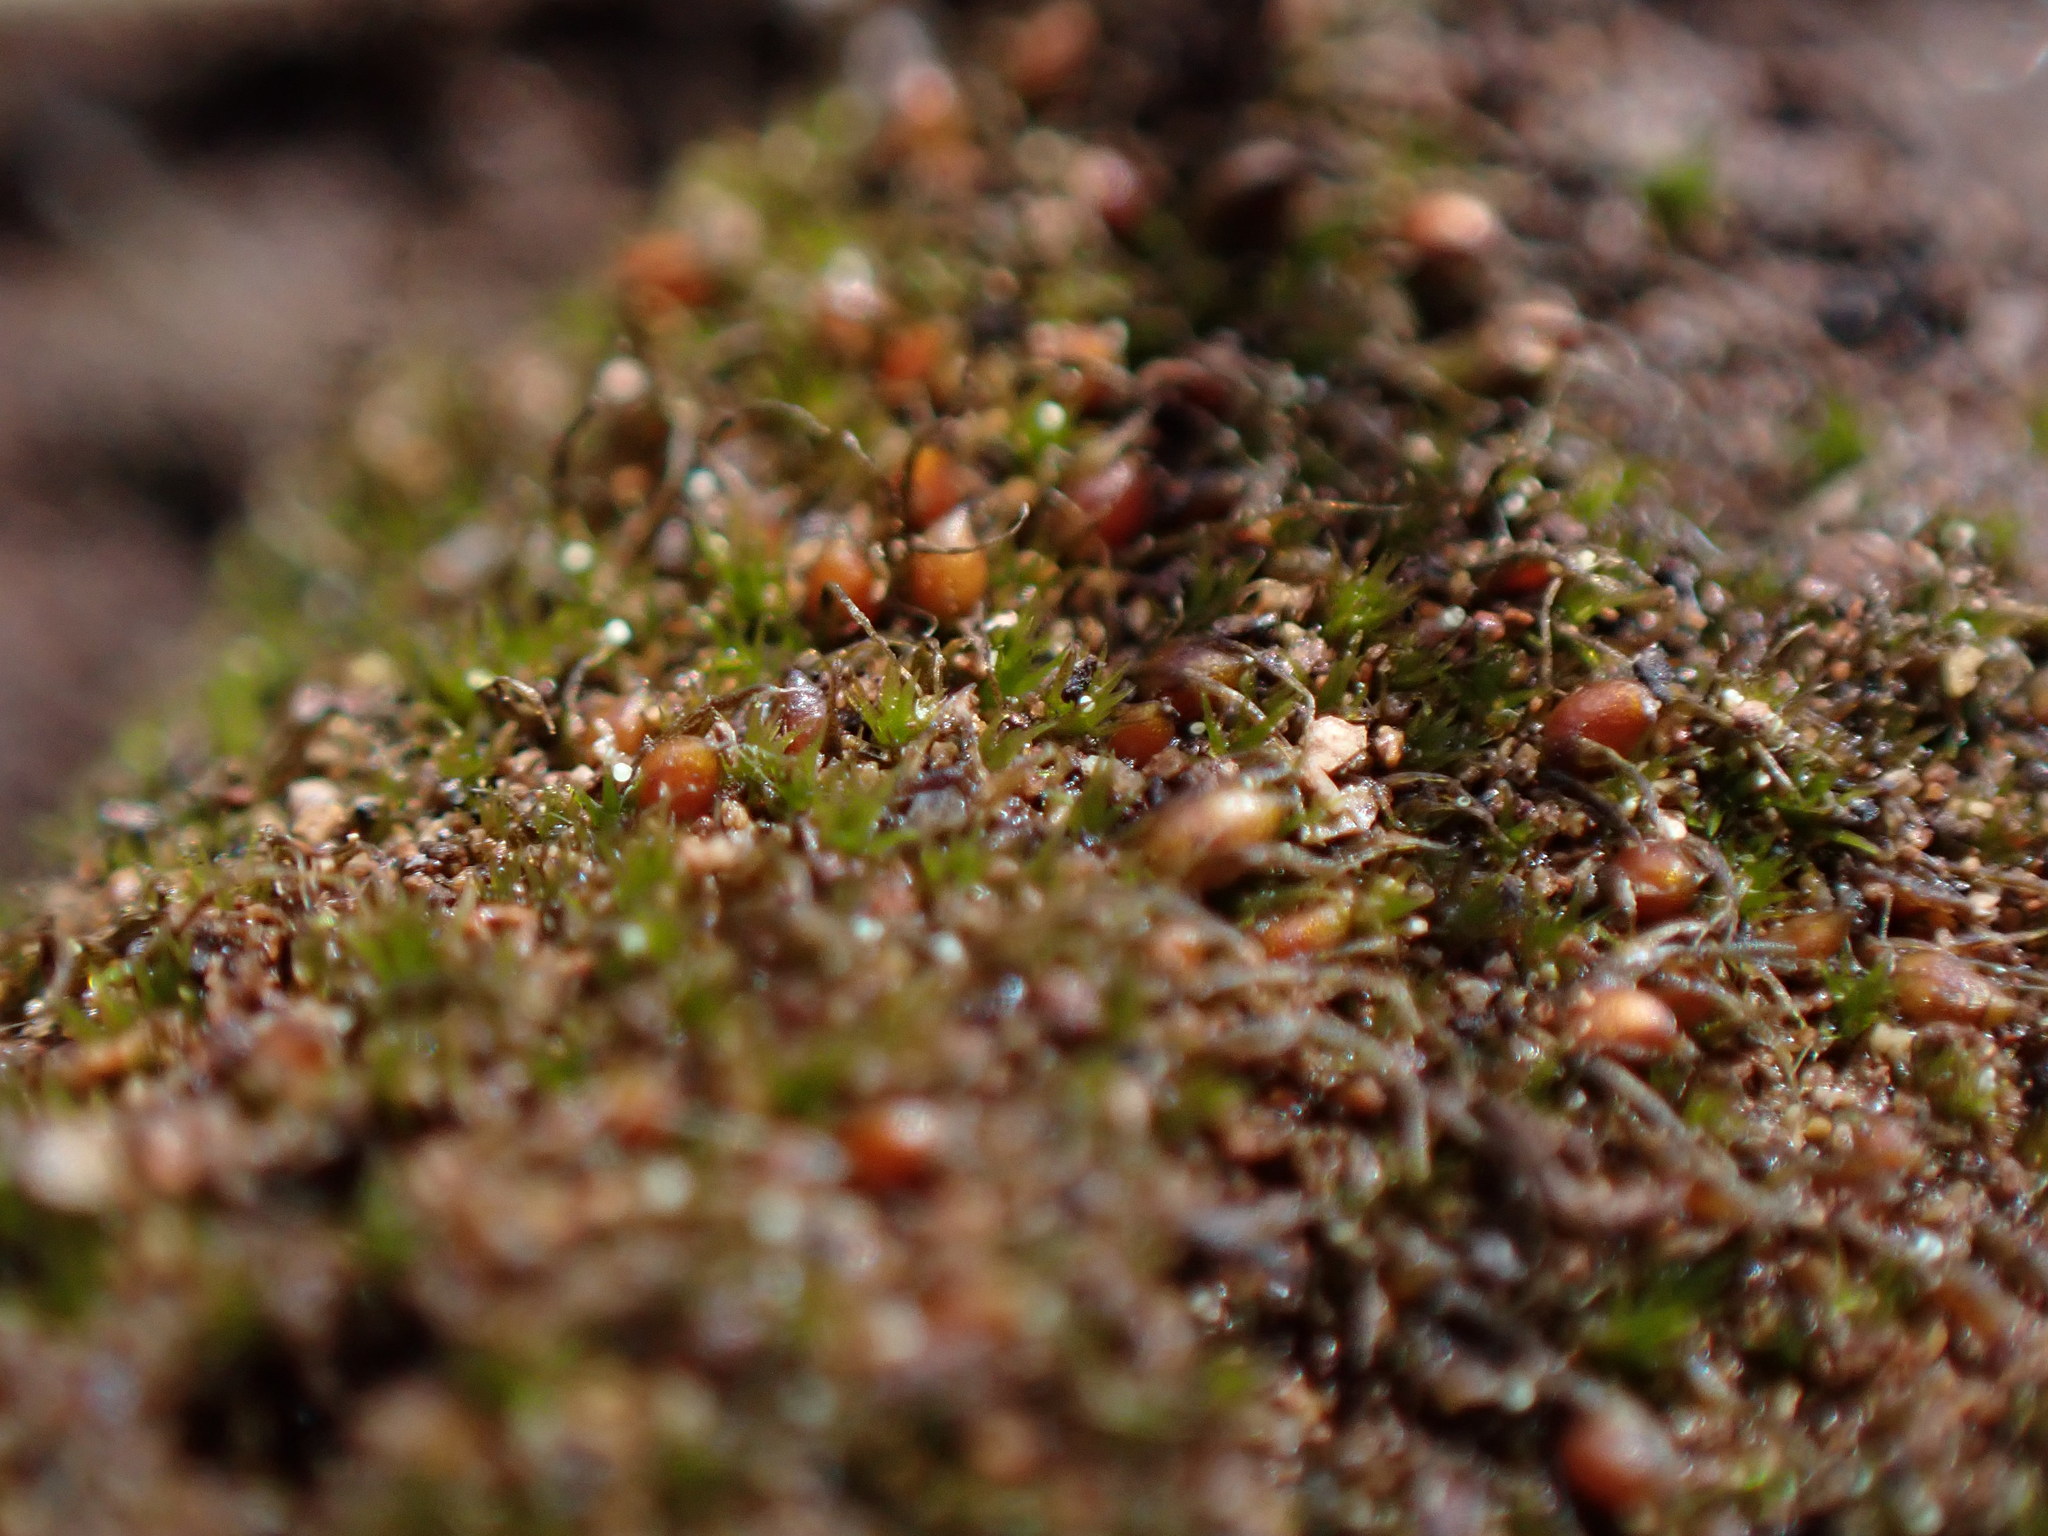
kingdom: Plantae
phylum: Bryophyta
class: Bryopsida
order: Dicranales
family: Ditrichaceae
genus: Pleuridium
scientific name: Pleuridium acuminatum
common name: Taper-leaved earth-moss
